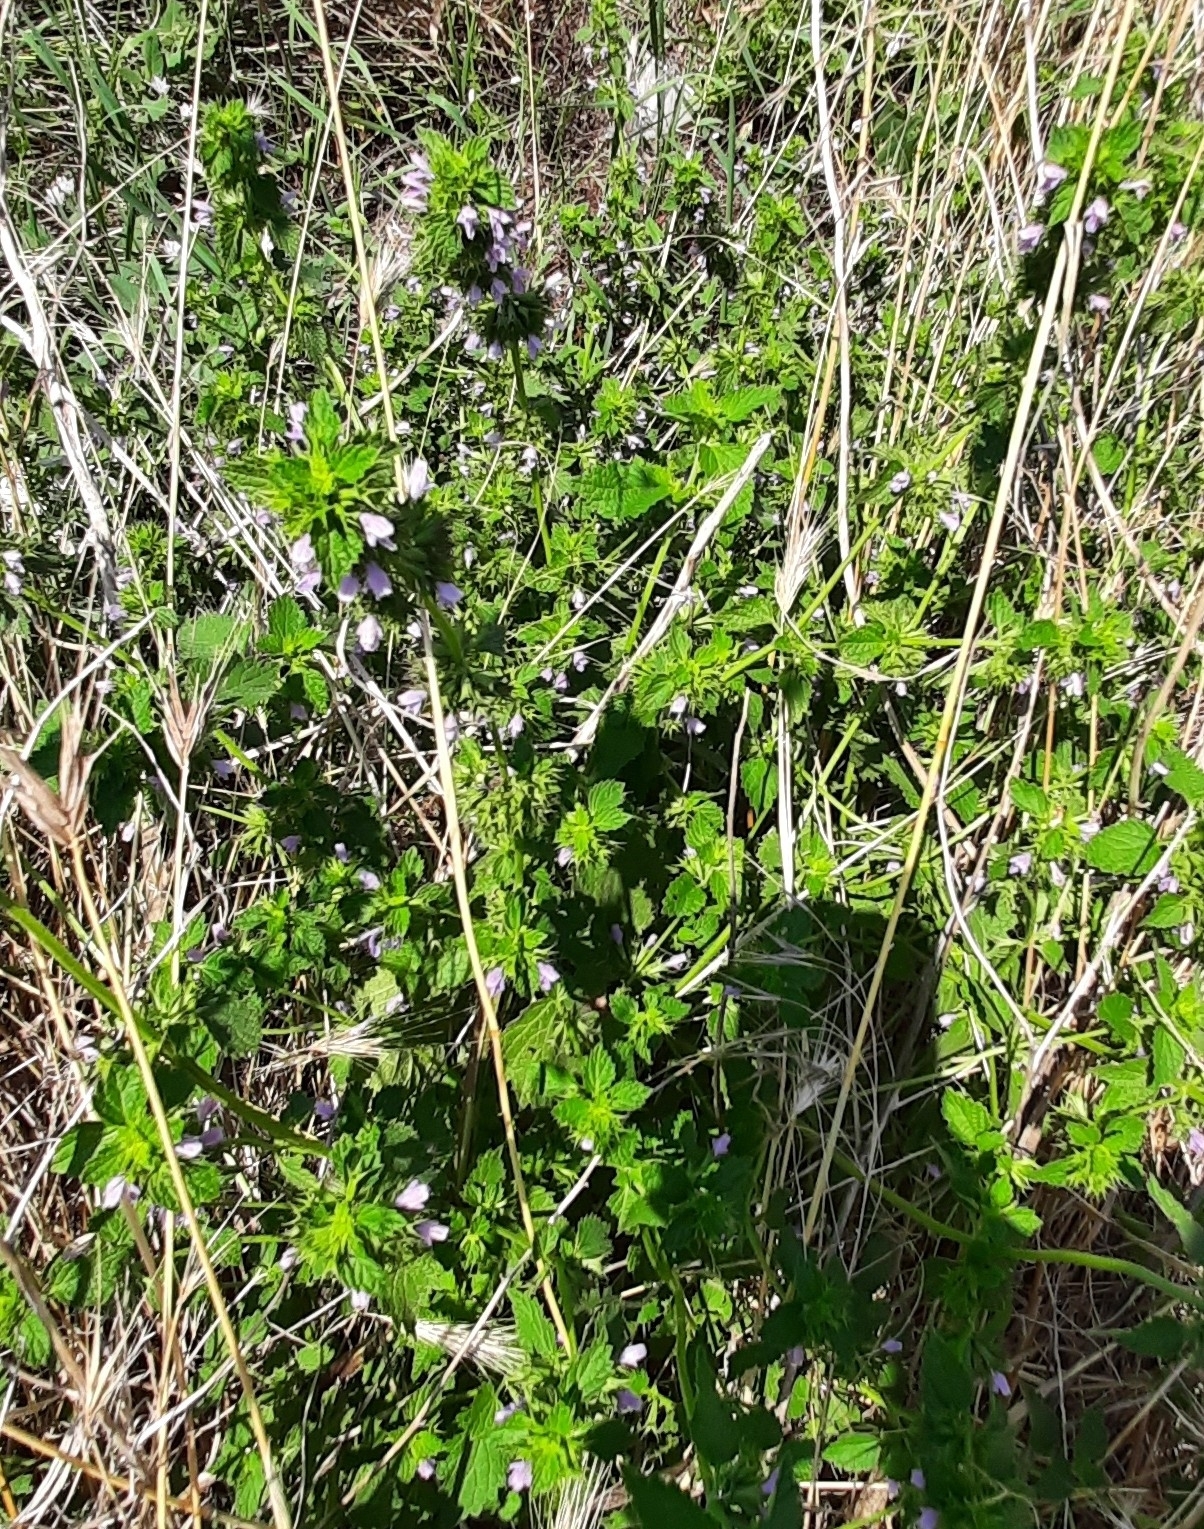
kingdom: Plantae
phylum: Tracheophyta
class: Magnoliopsida
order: Lamiales
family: Lamiaceae
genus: Ballota
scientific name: Ballota nigra
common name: Black horehound
